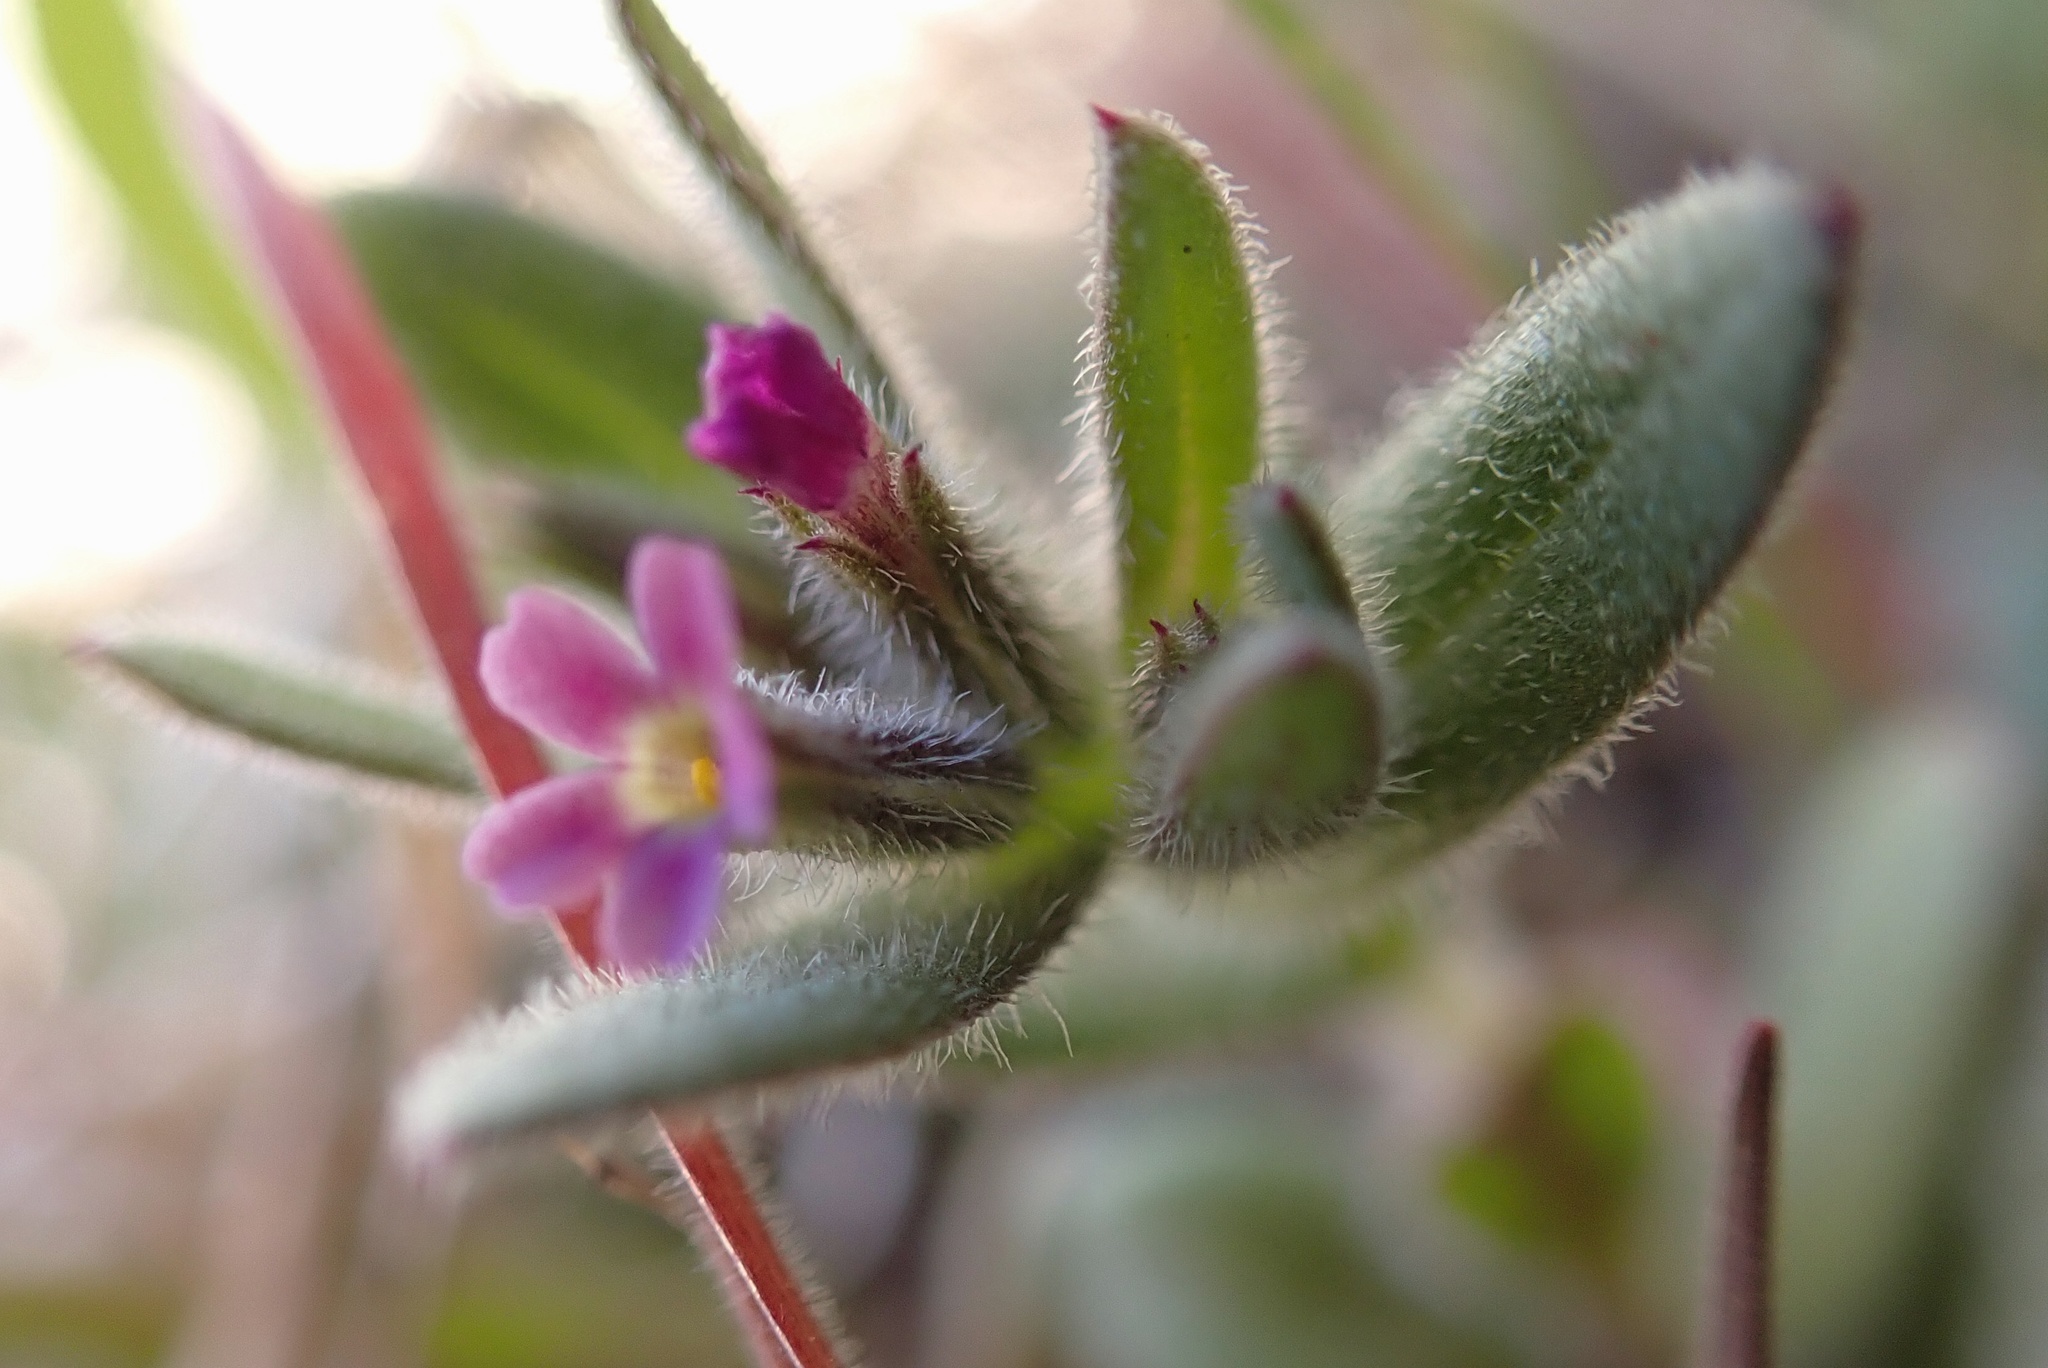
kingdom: Plantae
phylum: Tracheophyta
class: Magnoliopsida
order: Ericales
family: Polemoniaceae
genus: Phlox
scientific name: Phlox gracilis
